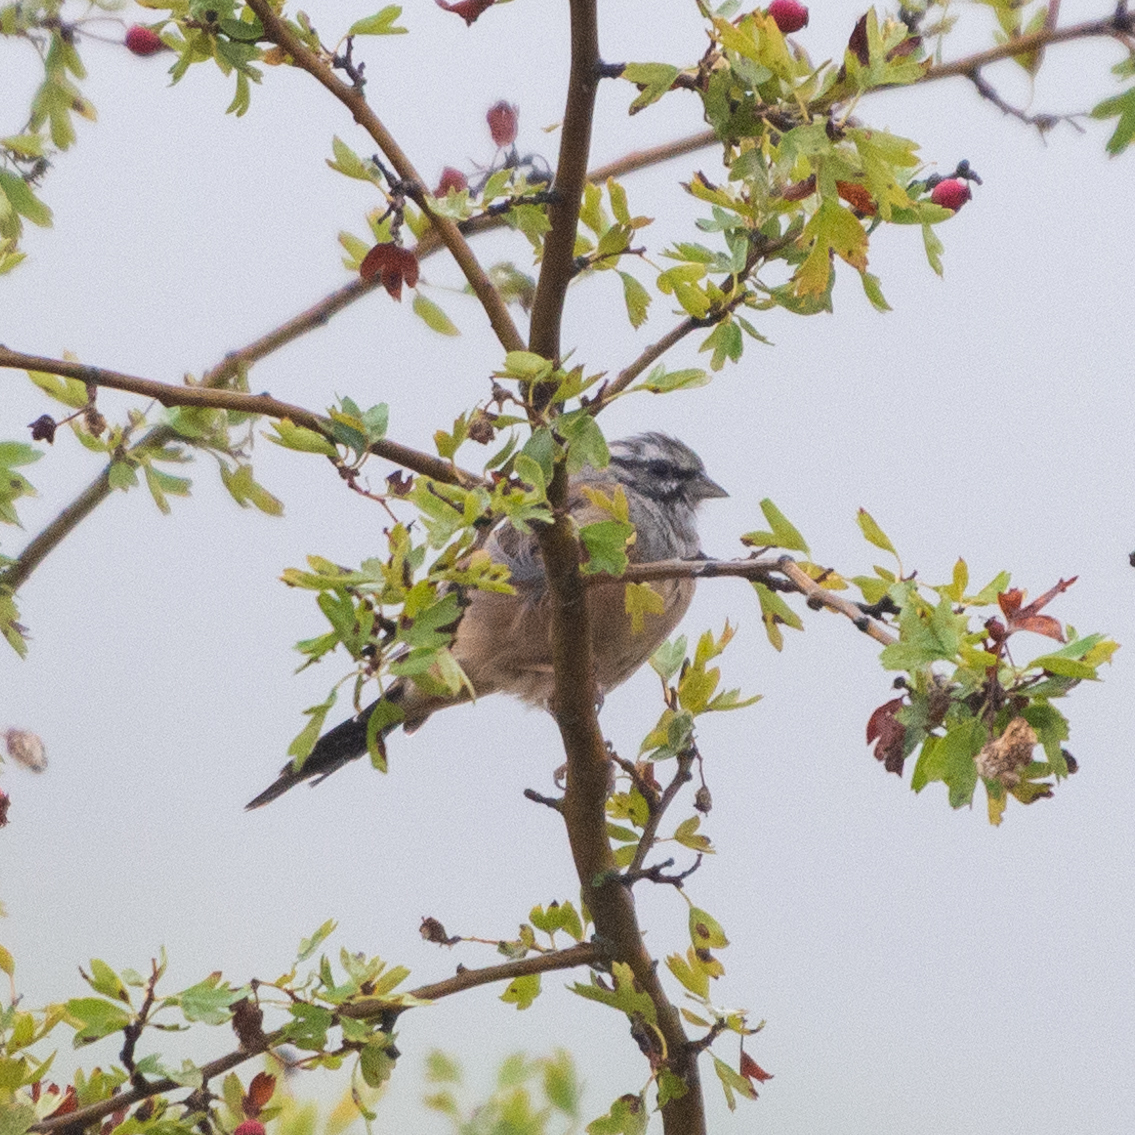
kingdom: Animalia
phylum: Chordata
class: Aves
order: Passeriformes
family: Emberizidae
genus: Emberiza
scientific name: Emberiza cia
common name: Rock bunting
